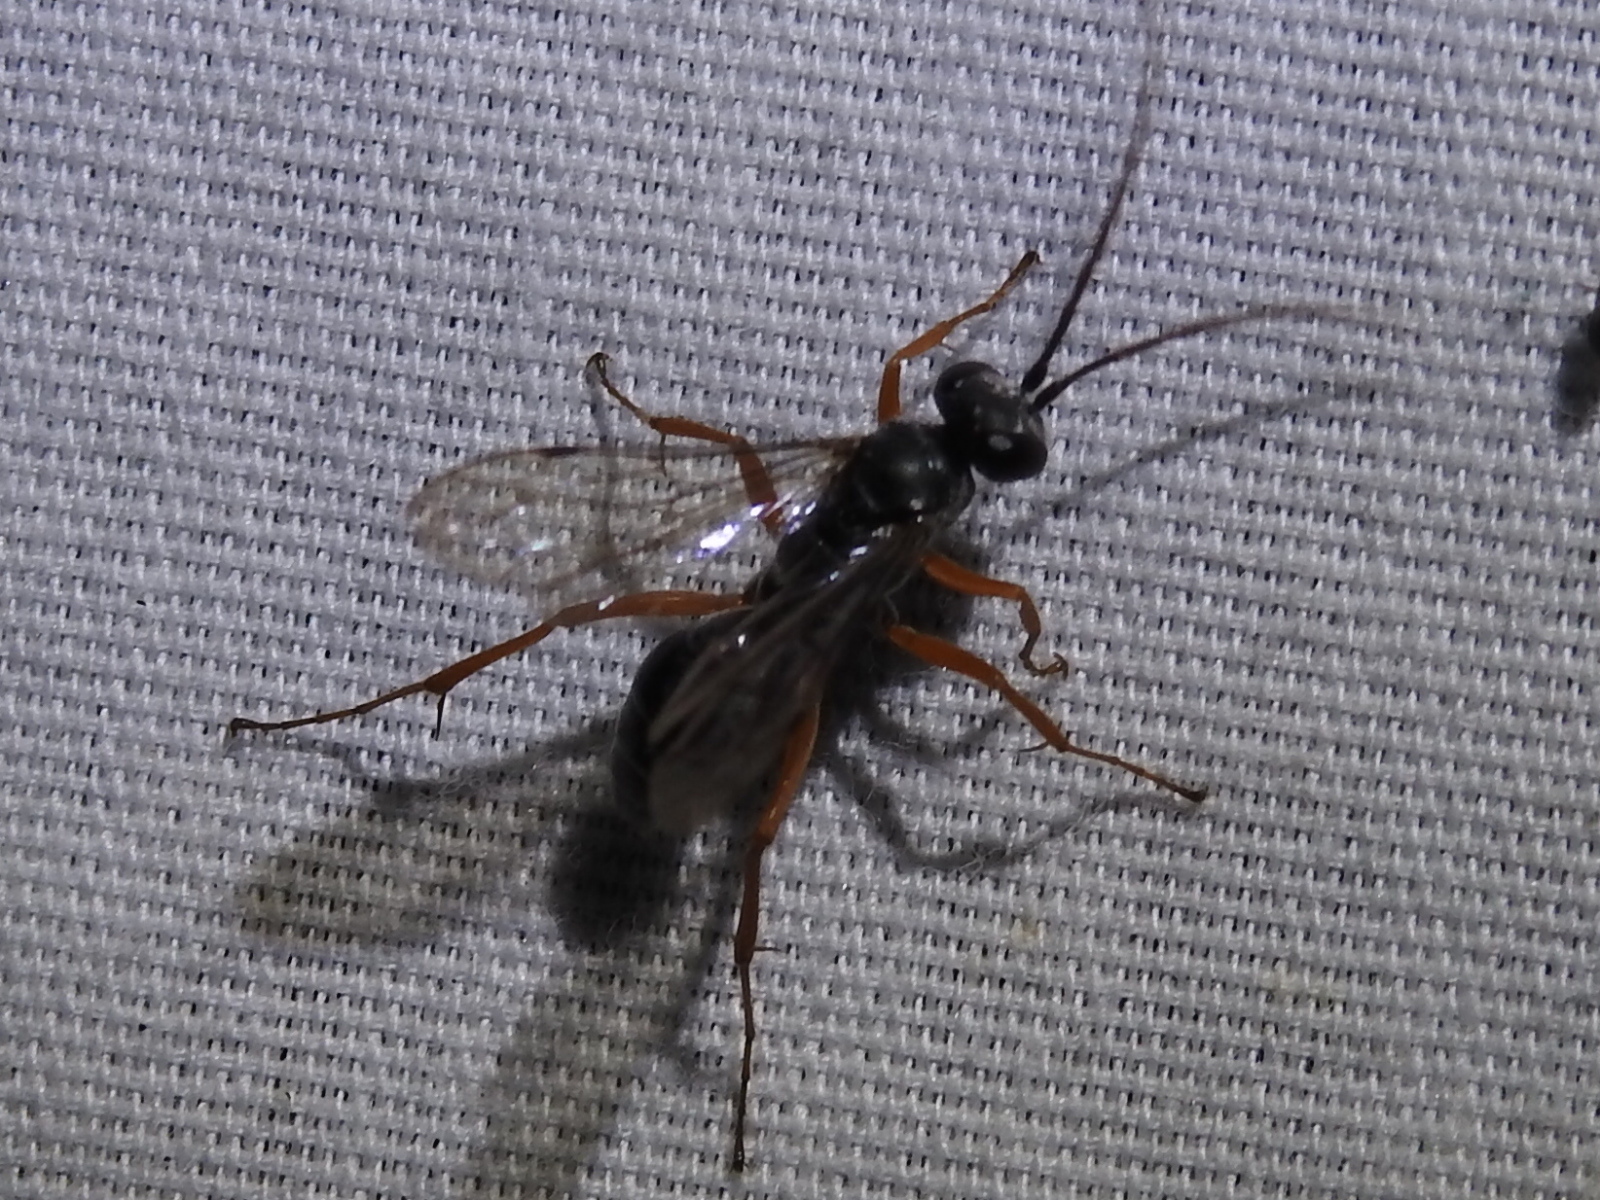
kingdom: Animalia
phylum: Arthropoda
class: Insecta
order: Hymenoptera
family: Pompilidae
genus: Auplopus
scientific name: Auplopus mellipes
